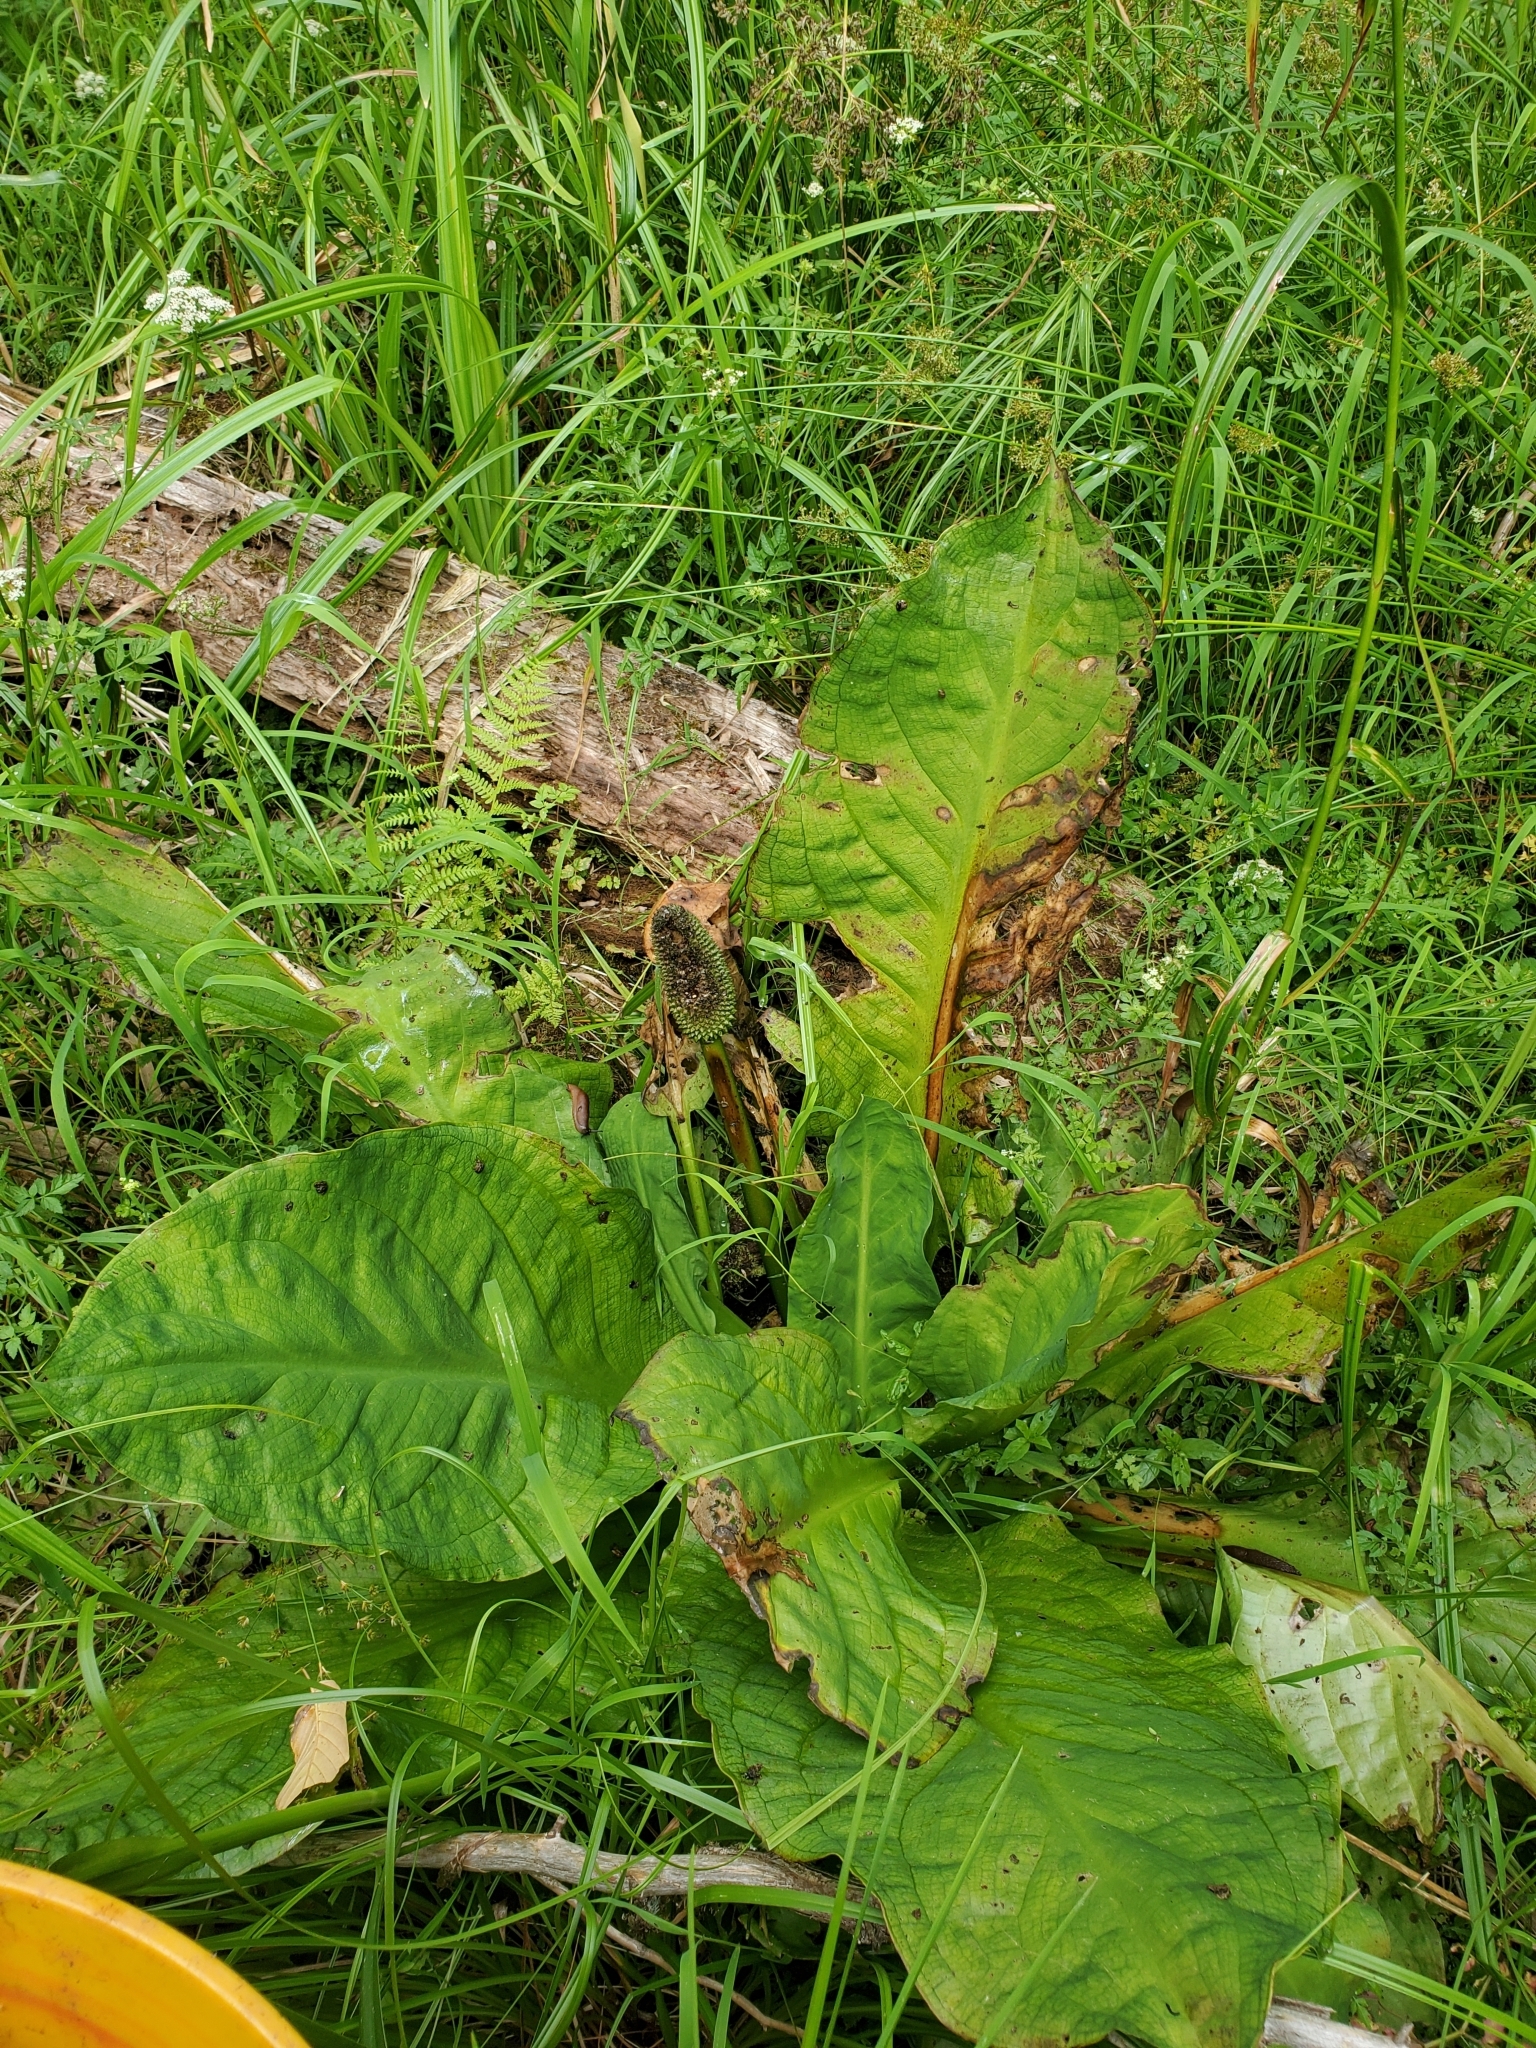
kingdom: Plantae
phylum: Tracheophyta
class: Liliopsida
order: Alismatales
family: Araceae
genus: Lysichiton
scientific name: Lysichiton americanus
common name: American skunk cabbage
